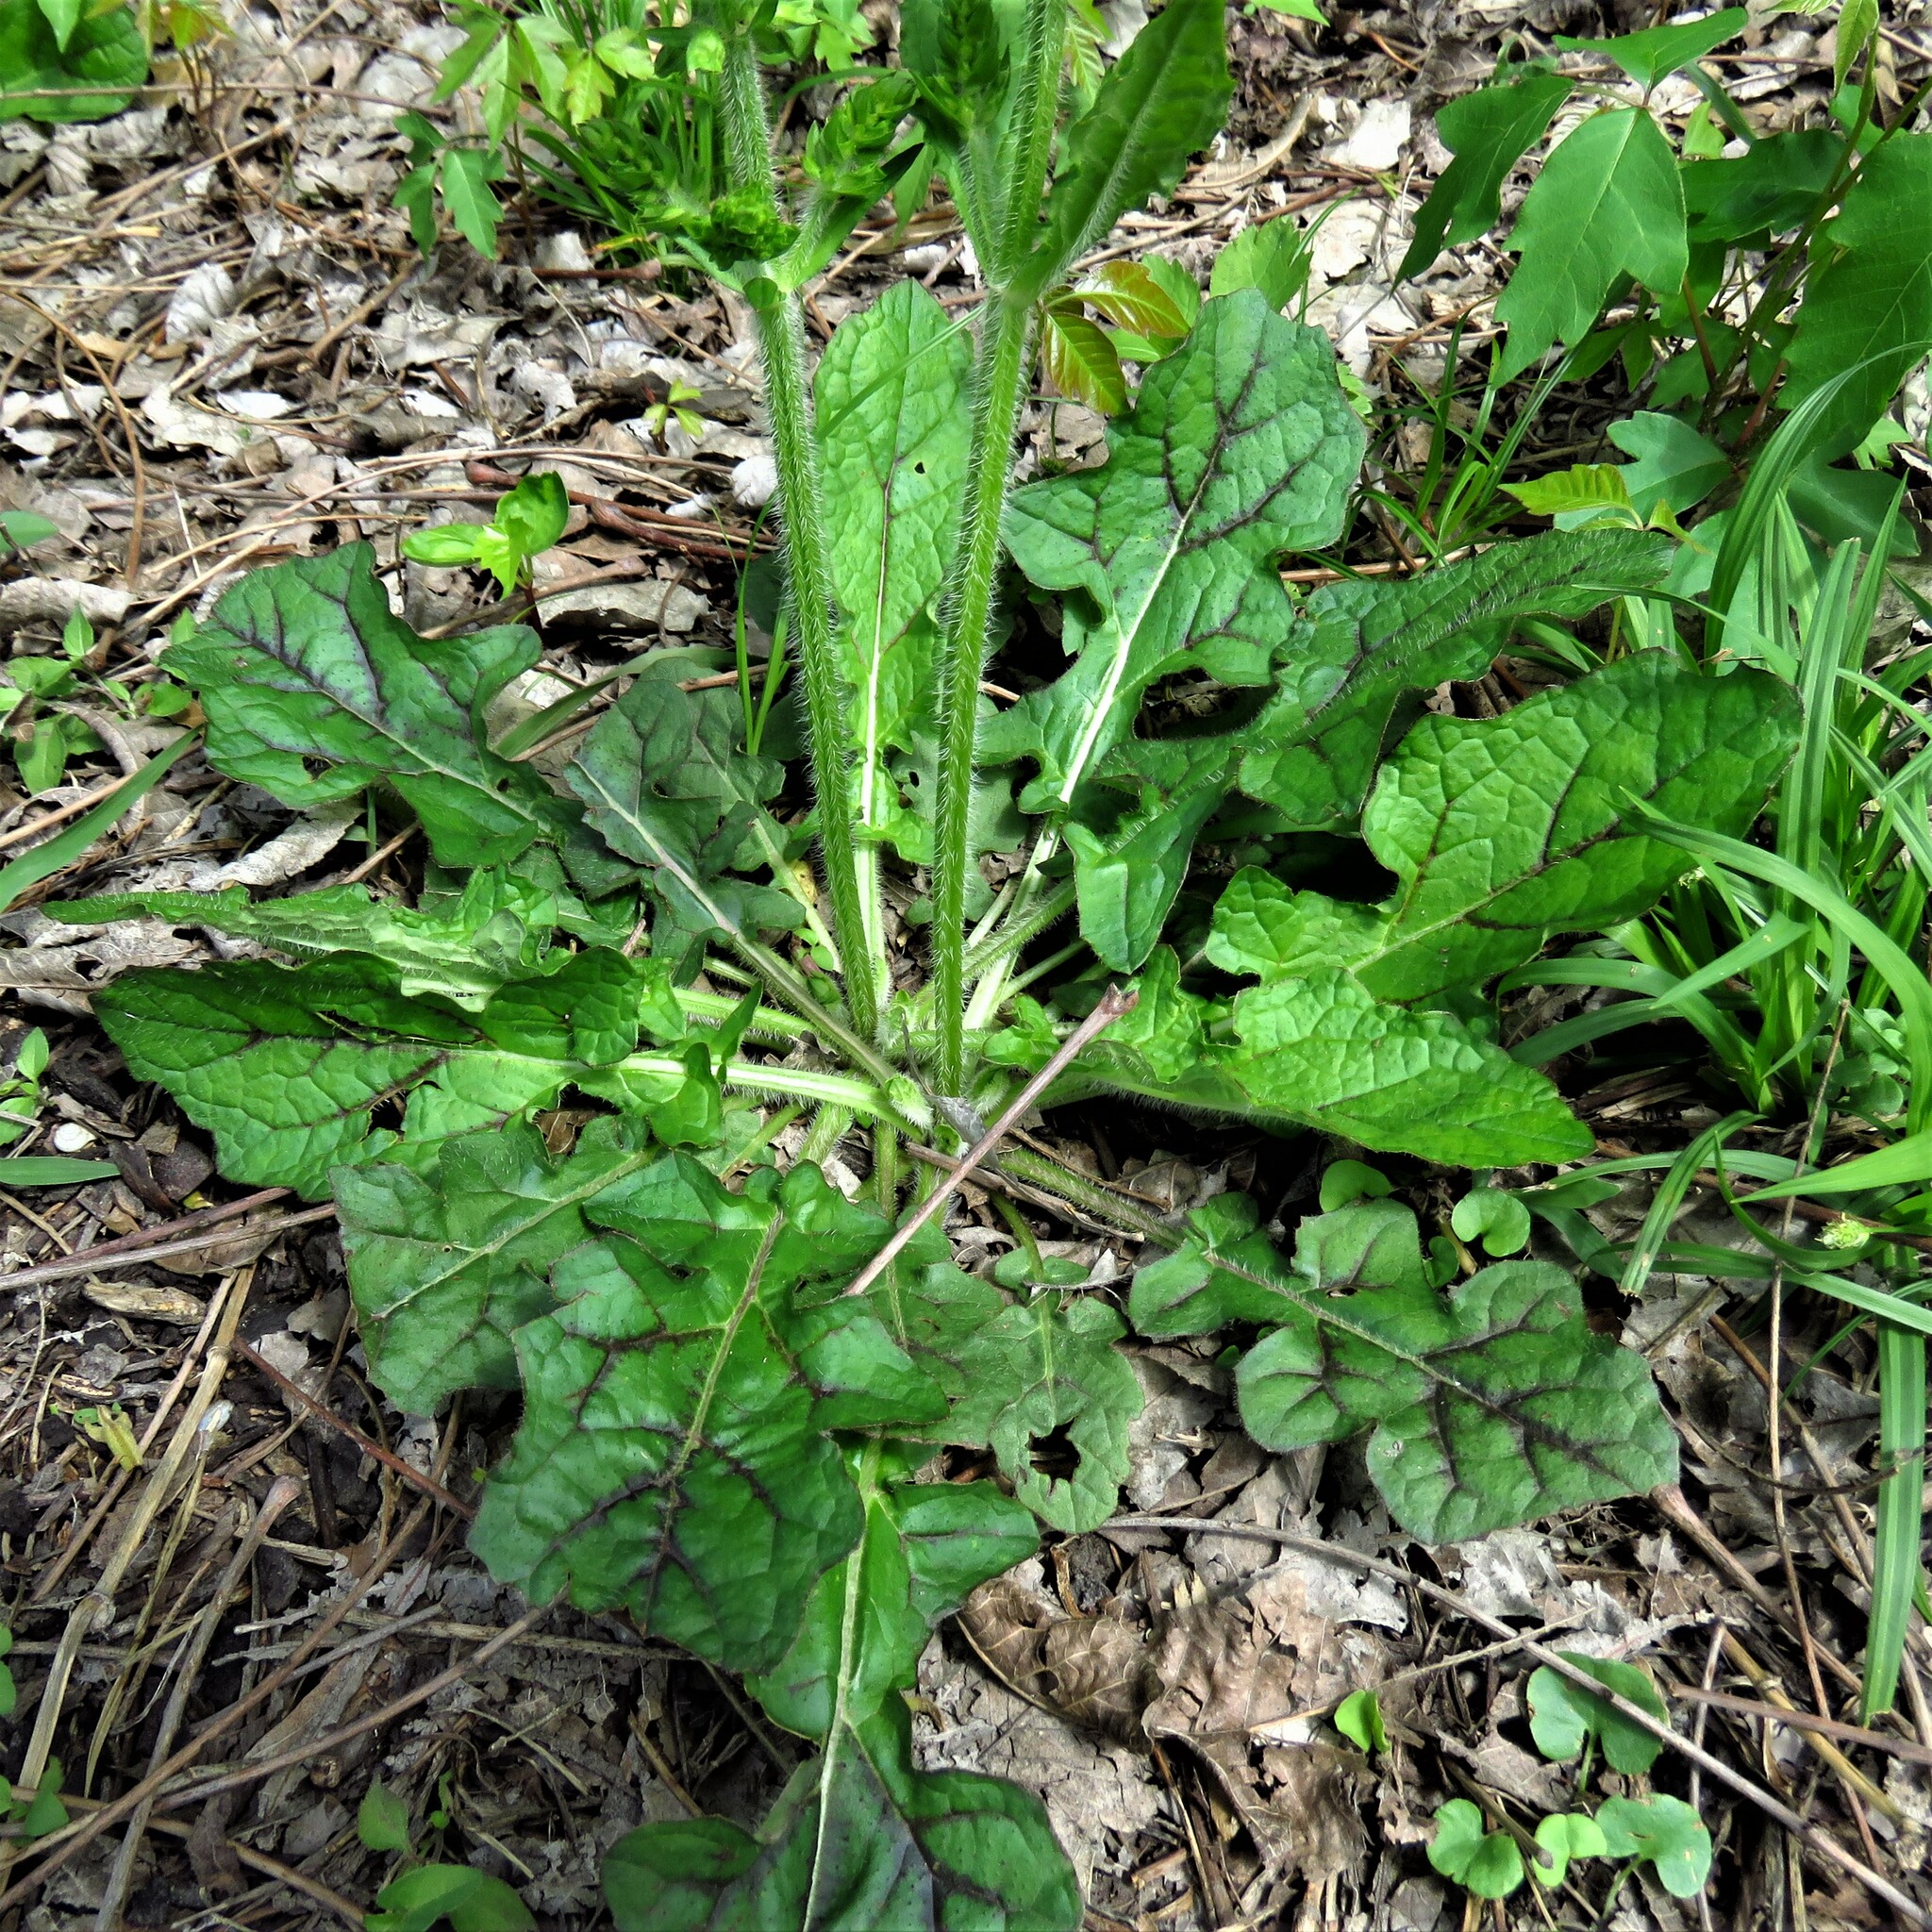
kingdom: Plantae
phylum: Tracheophyta
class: Magnoliopsida
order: Lamiales
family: Lamiaceae
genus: Salvia
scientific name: Salvia lyrata
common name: Cancerweed
